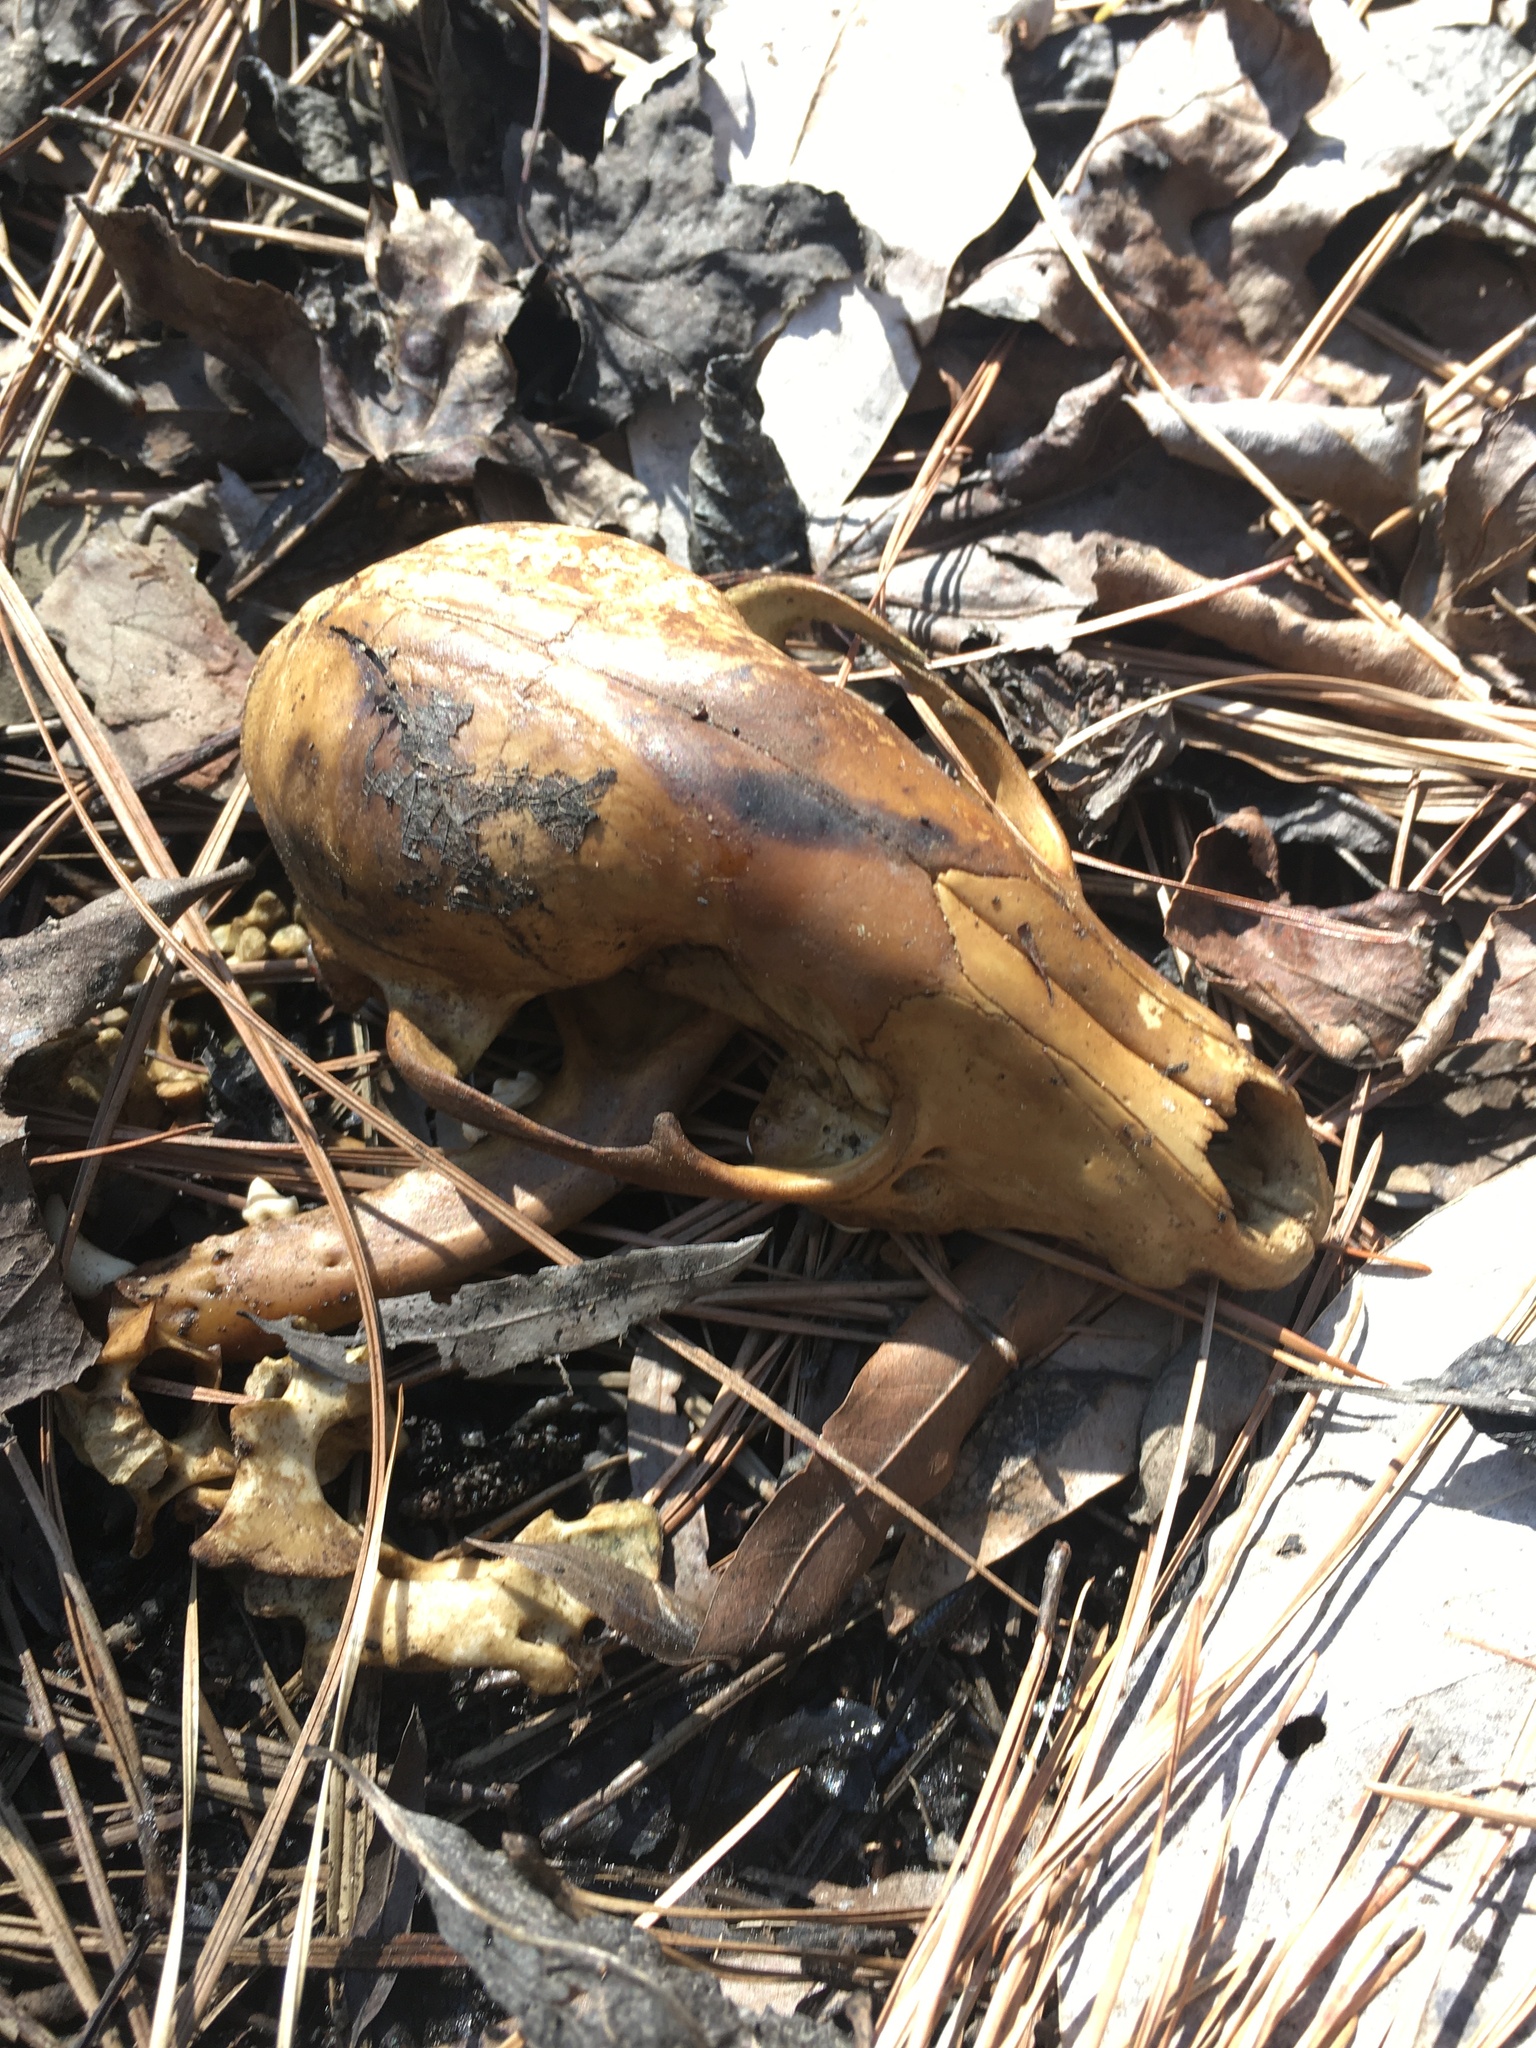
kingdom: Animalia
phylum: Chordata
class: Mammalia
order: Carnivora
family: Procyonidae
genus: Procyon
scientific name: Procyon lotor
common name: Raccoon
